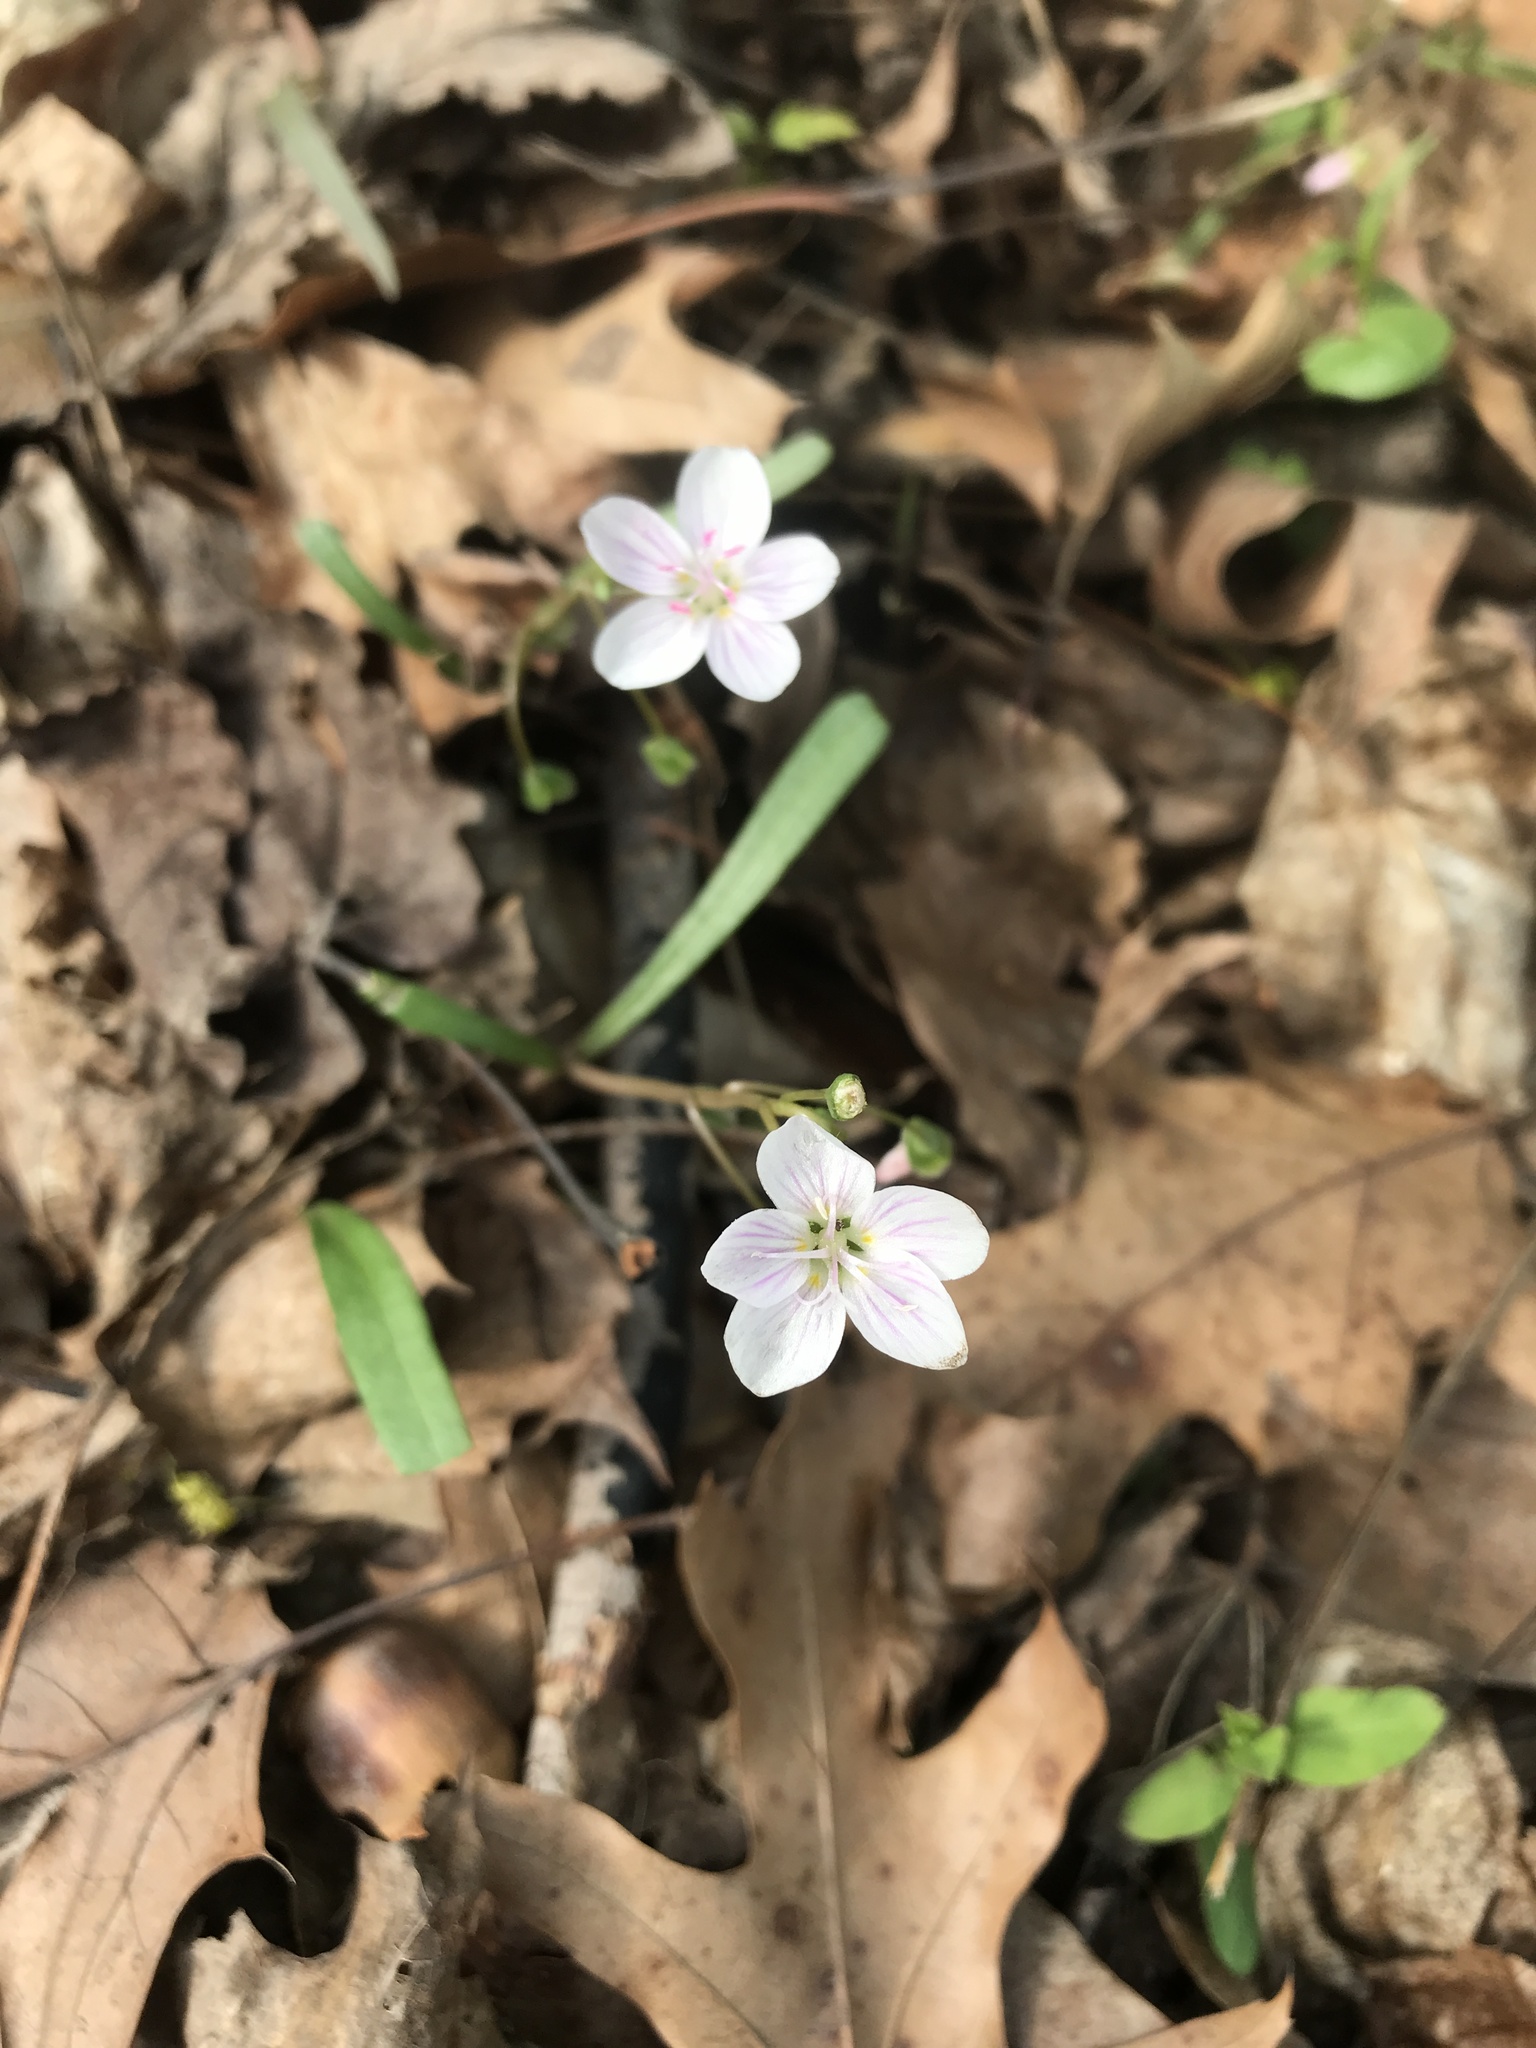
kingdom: Plantae
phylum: Tracheophyta
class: Magnoliopsida
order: Caryophyllales
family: Montiaceae
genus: Claytonia
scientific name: Claytonia virginica
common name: Virginia springbeauty
